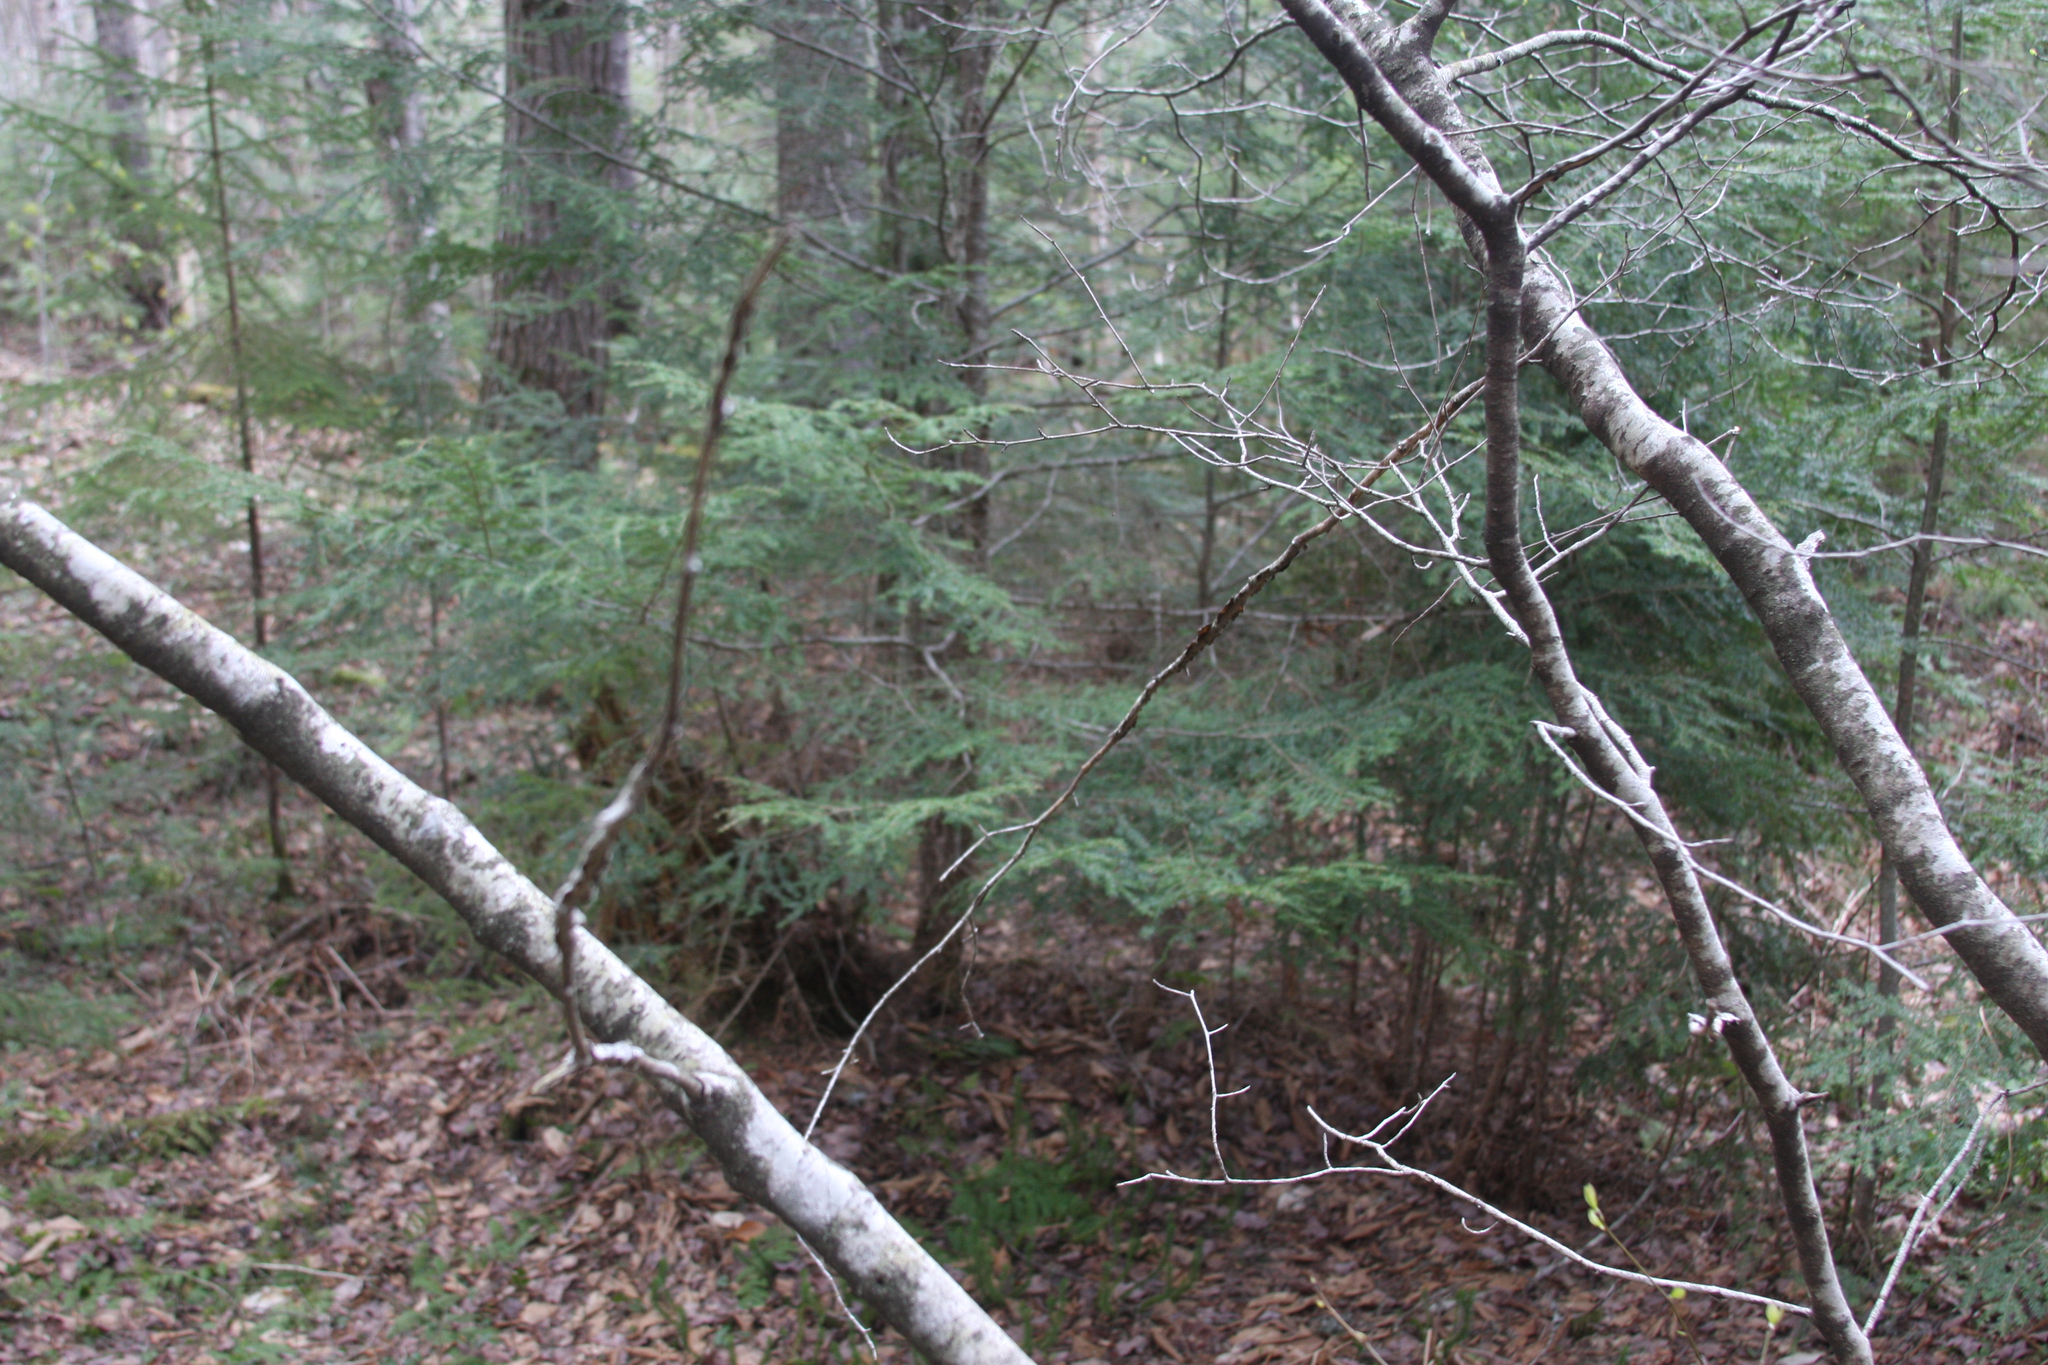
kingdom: Plantae
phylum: Tracheophyta
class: Pinopsida
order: Pinales
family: Pinaceae
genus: Tsuga
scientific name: Tsuga canadensis
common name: Eastern hemlock
